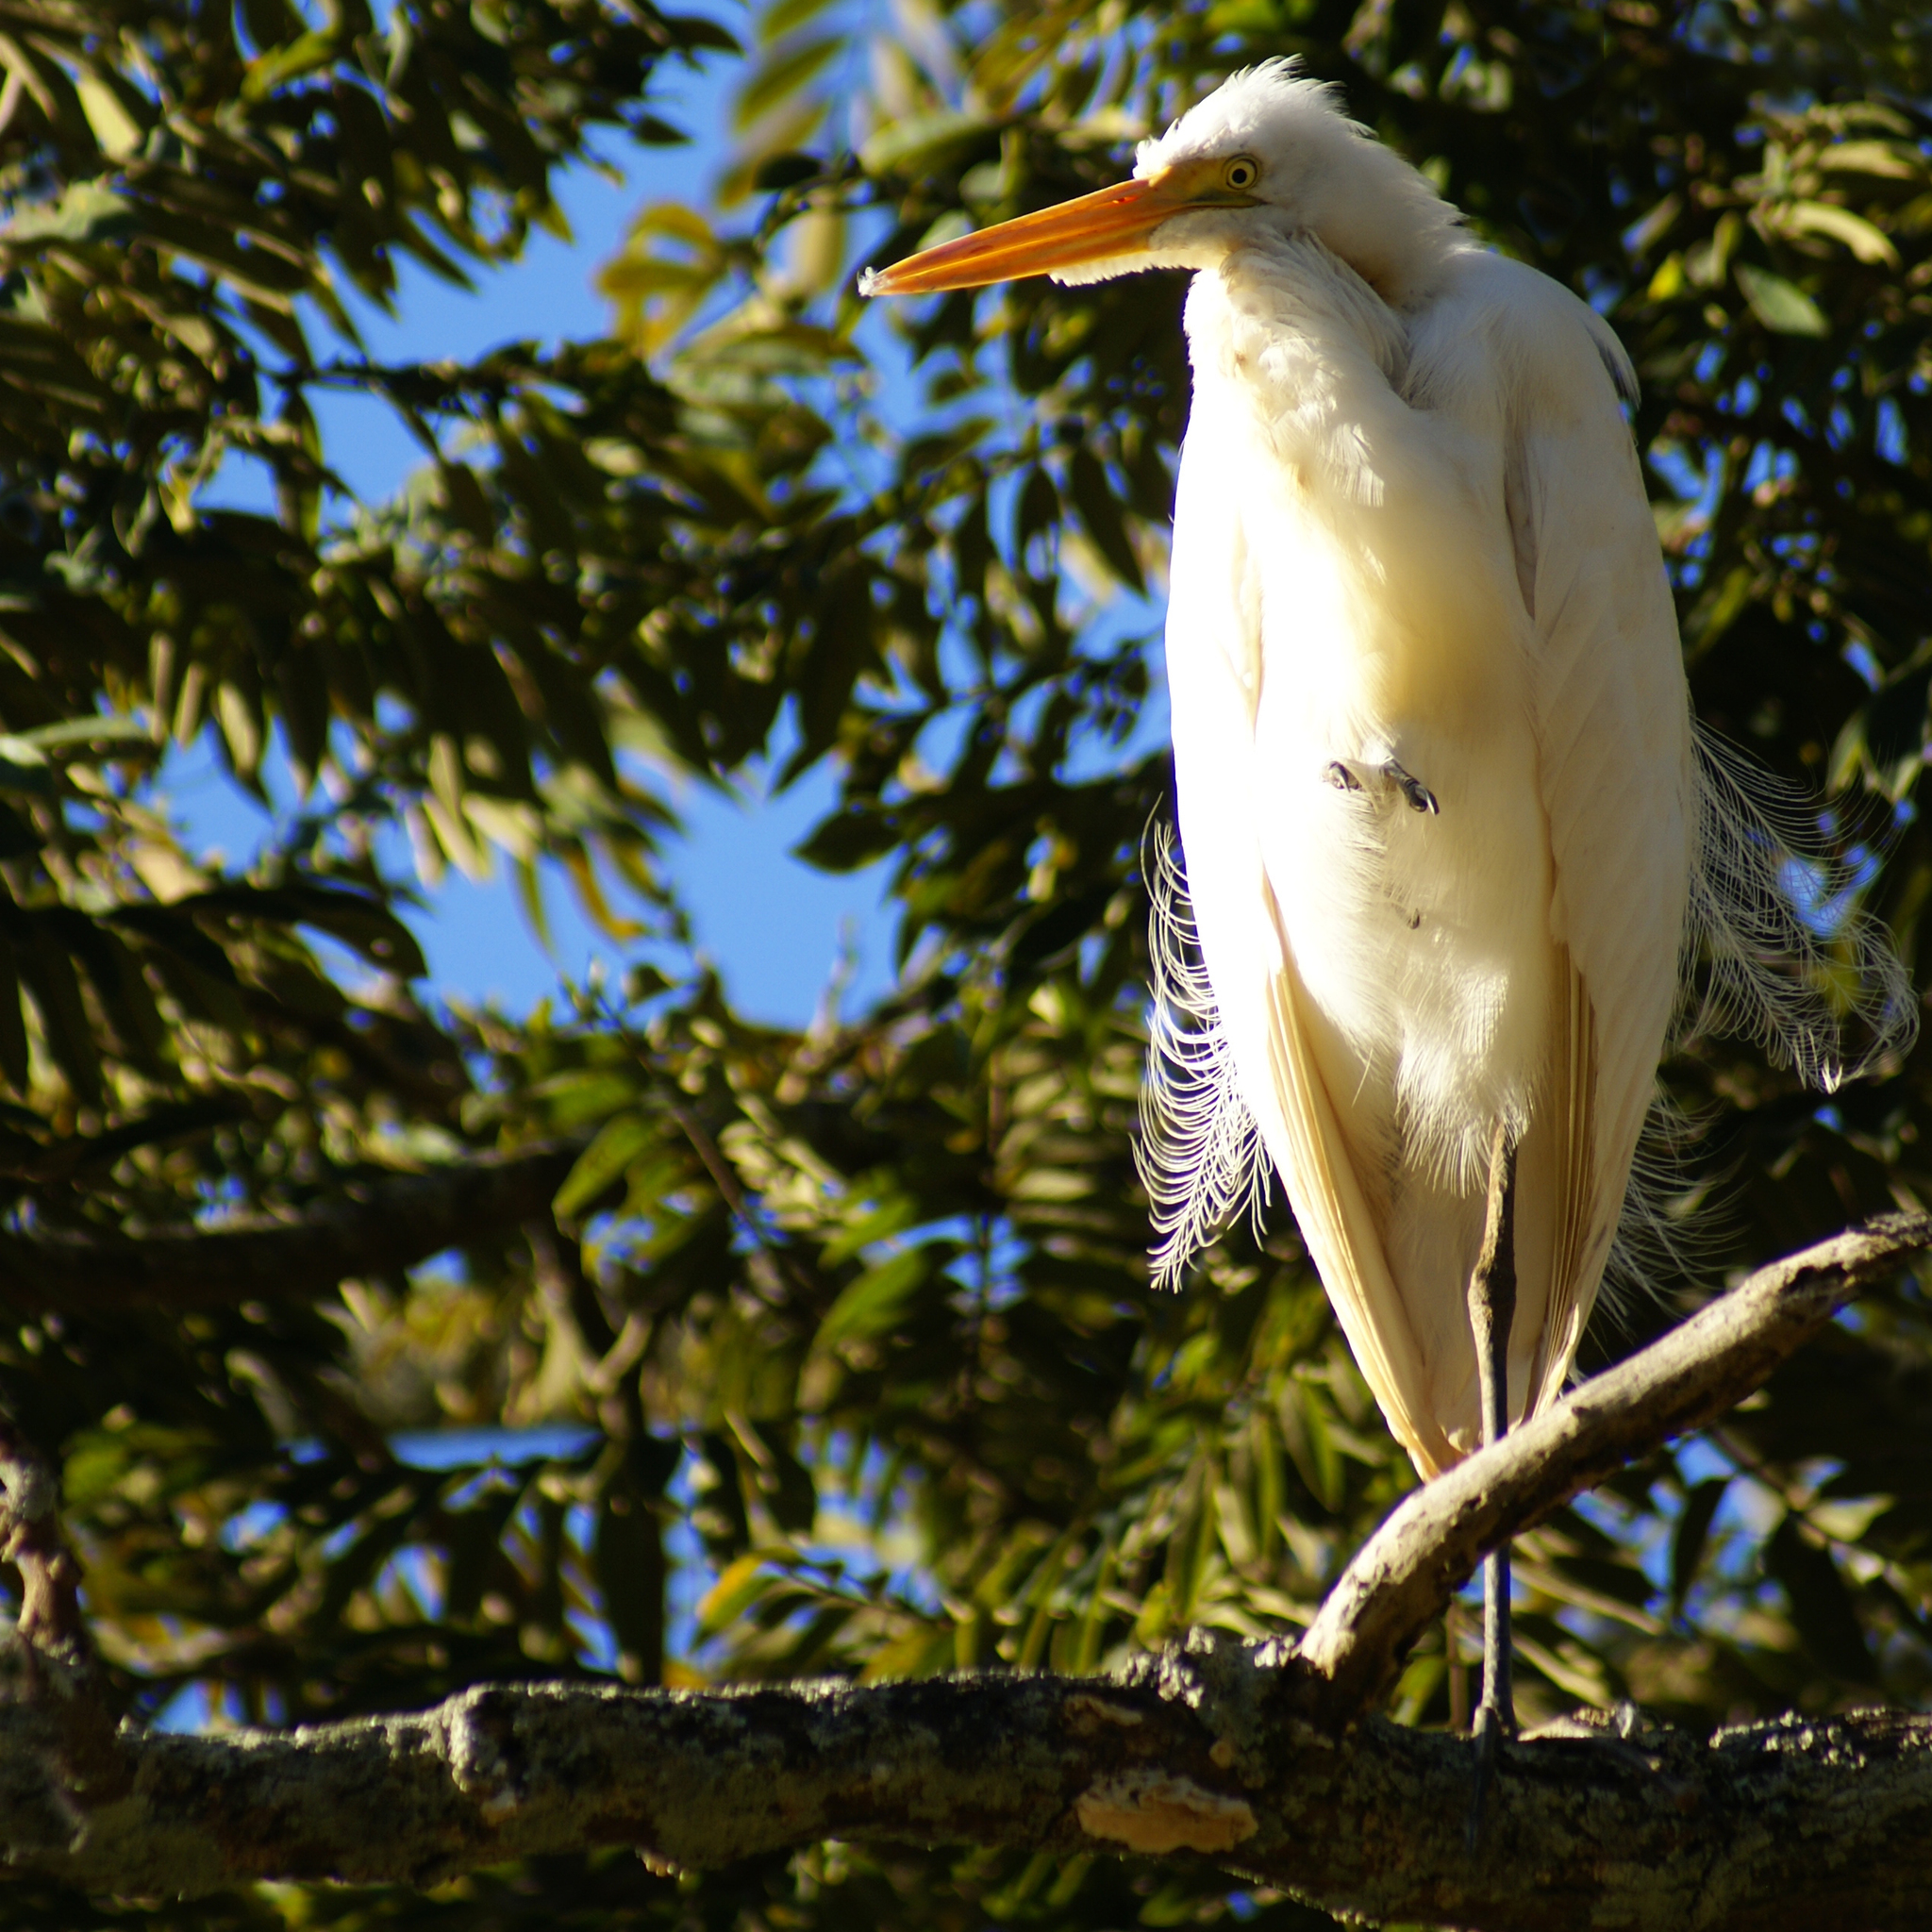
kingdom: Animalia
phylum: Chordata
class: Aves
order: Pelecaniformes
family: Ardeidae
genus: Ardea
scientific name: Ardea alba
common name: Great egret
